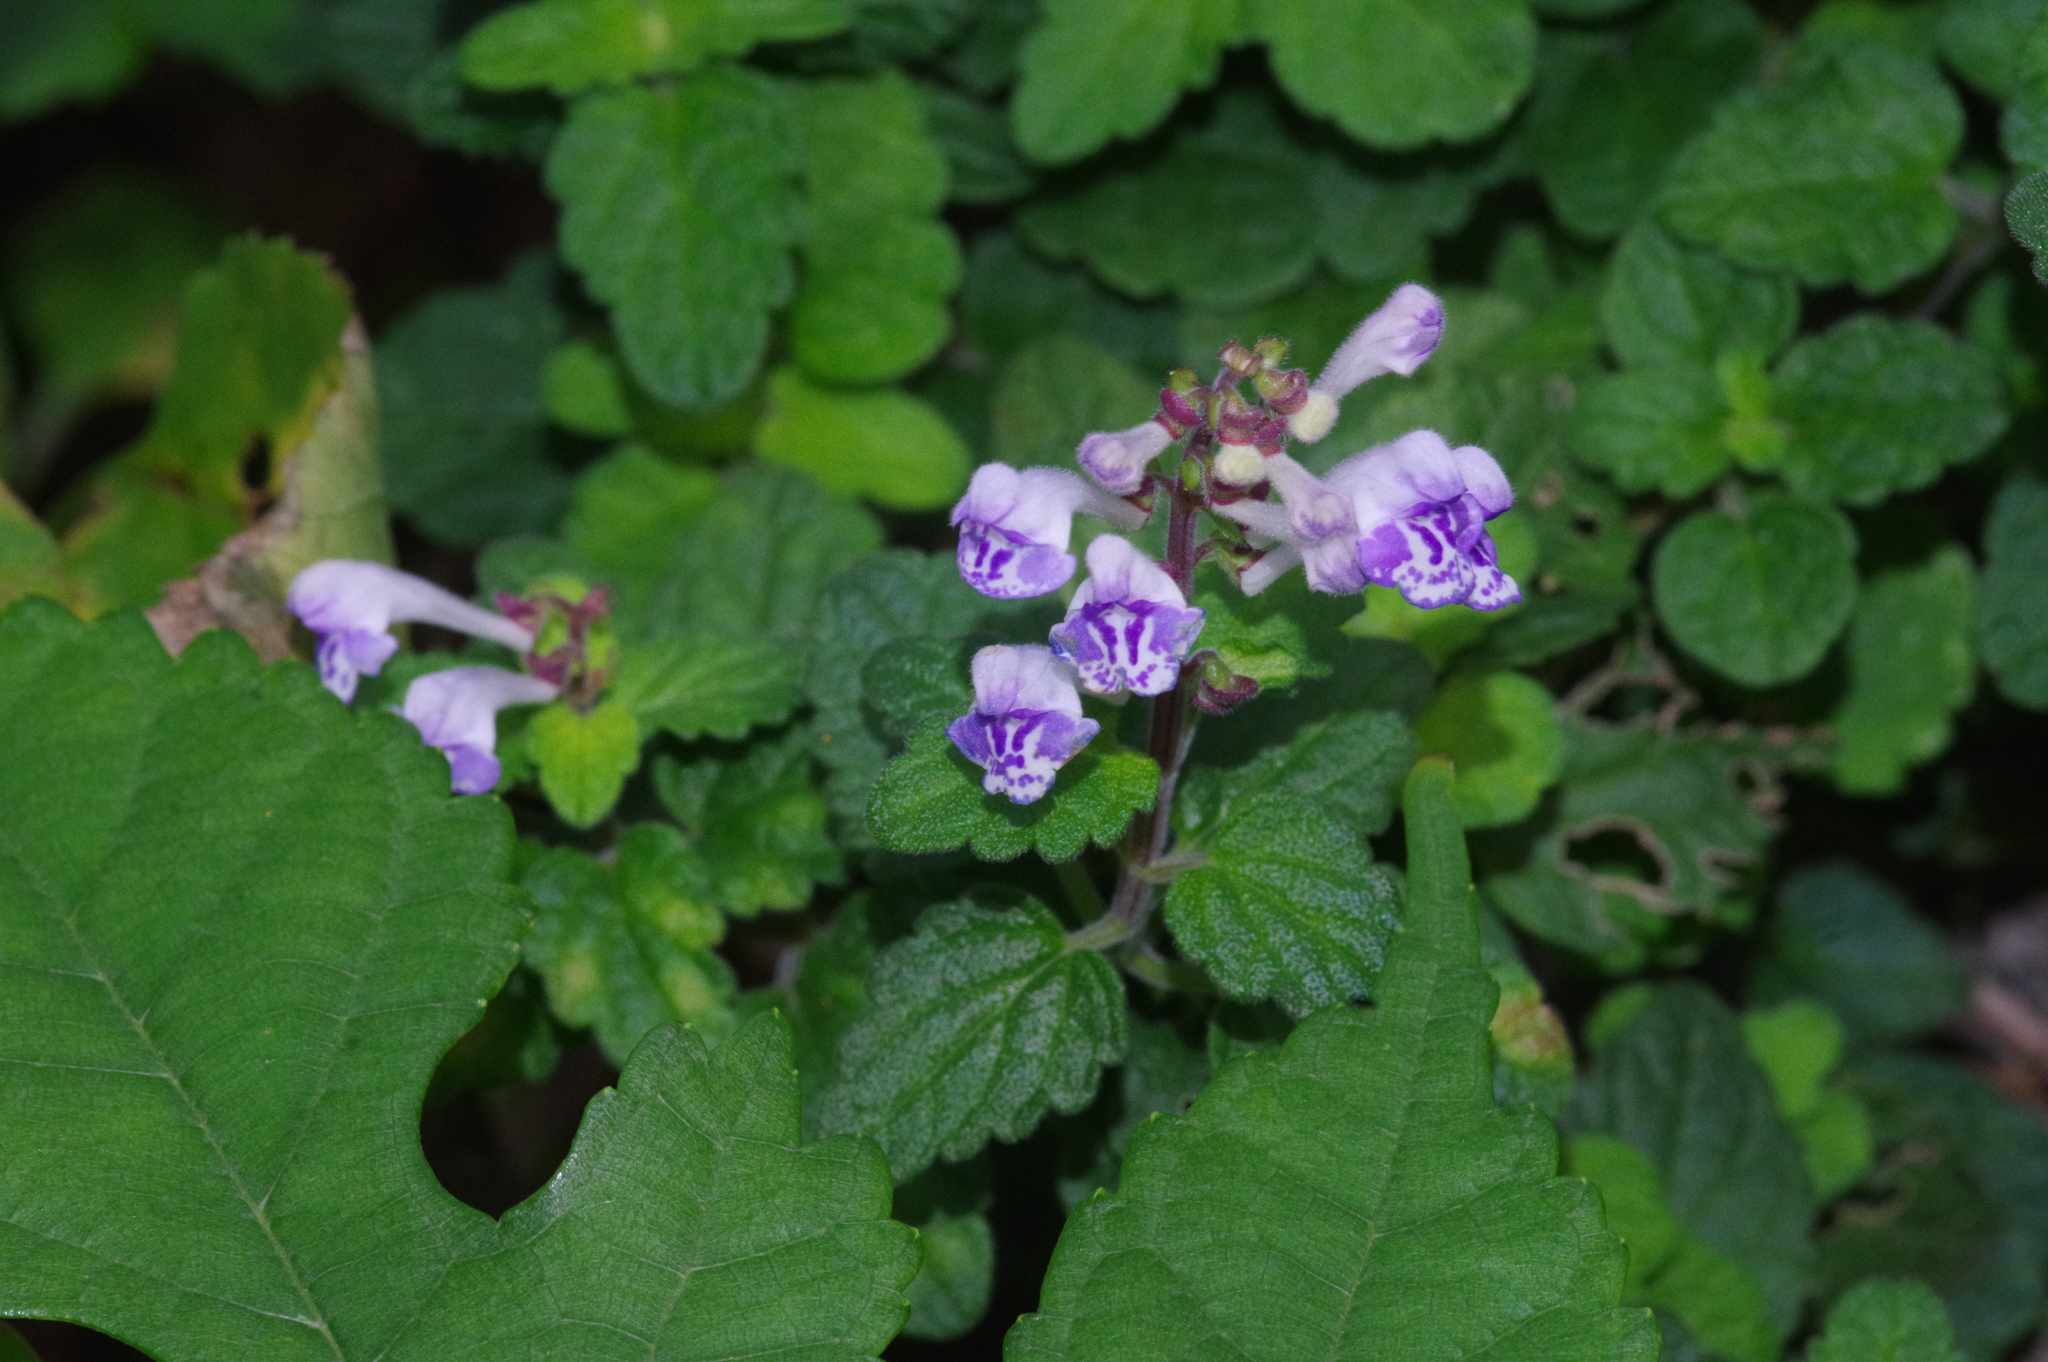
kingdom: Plantae
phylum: Tracheophyta
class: Magnoliopsida
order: Lamiales
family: Lamiaceae
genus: Scutellaria
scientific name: Scutellaria rubropunctata
